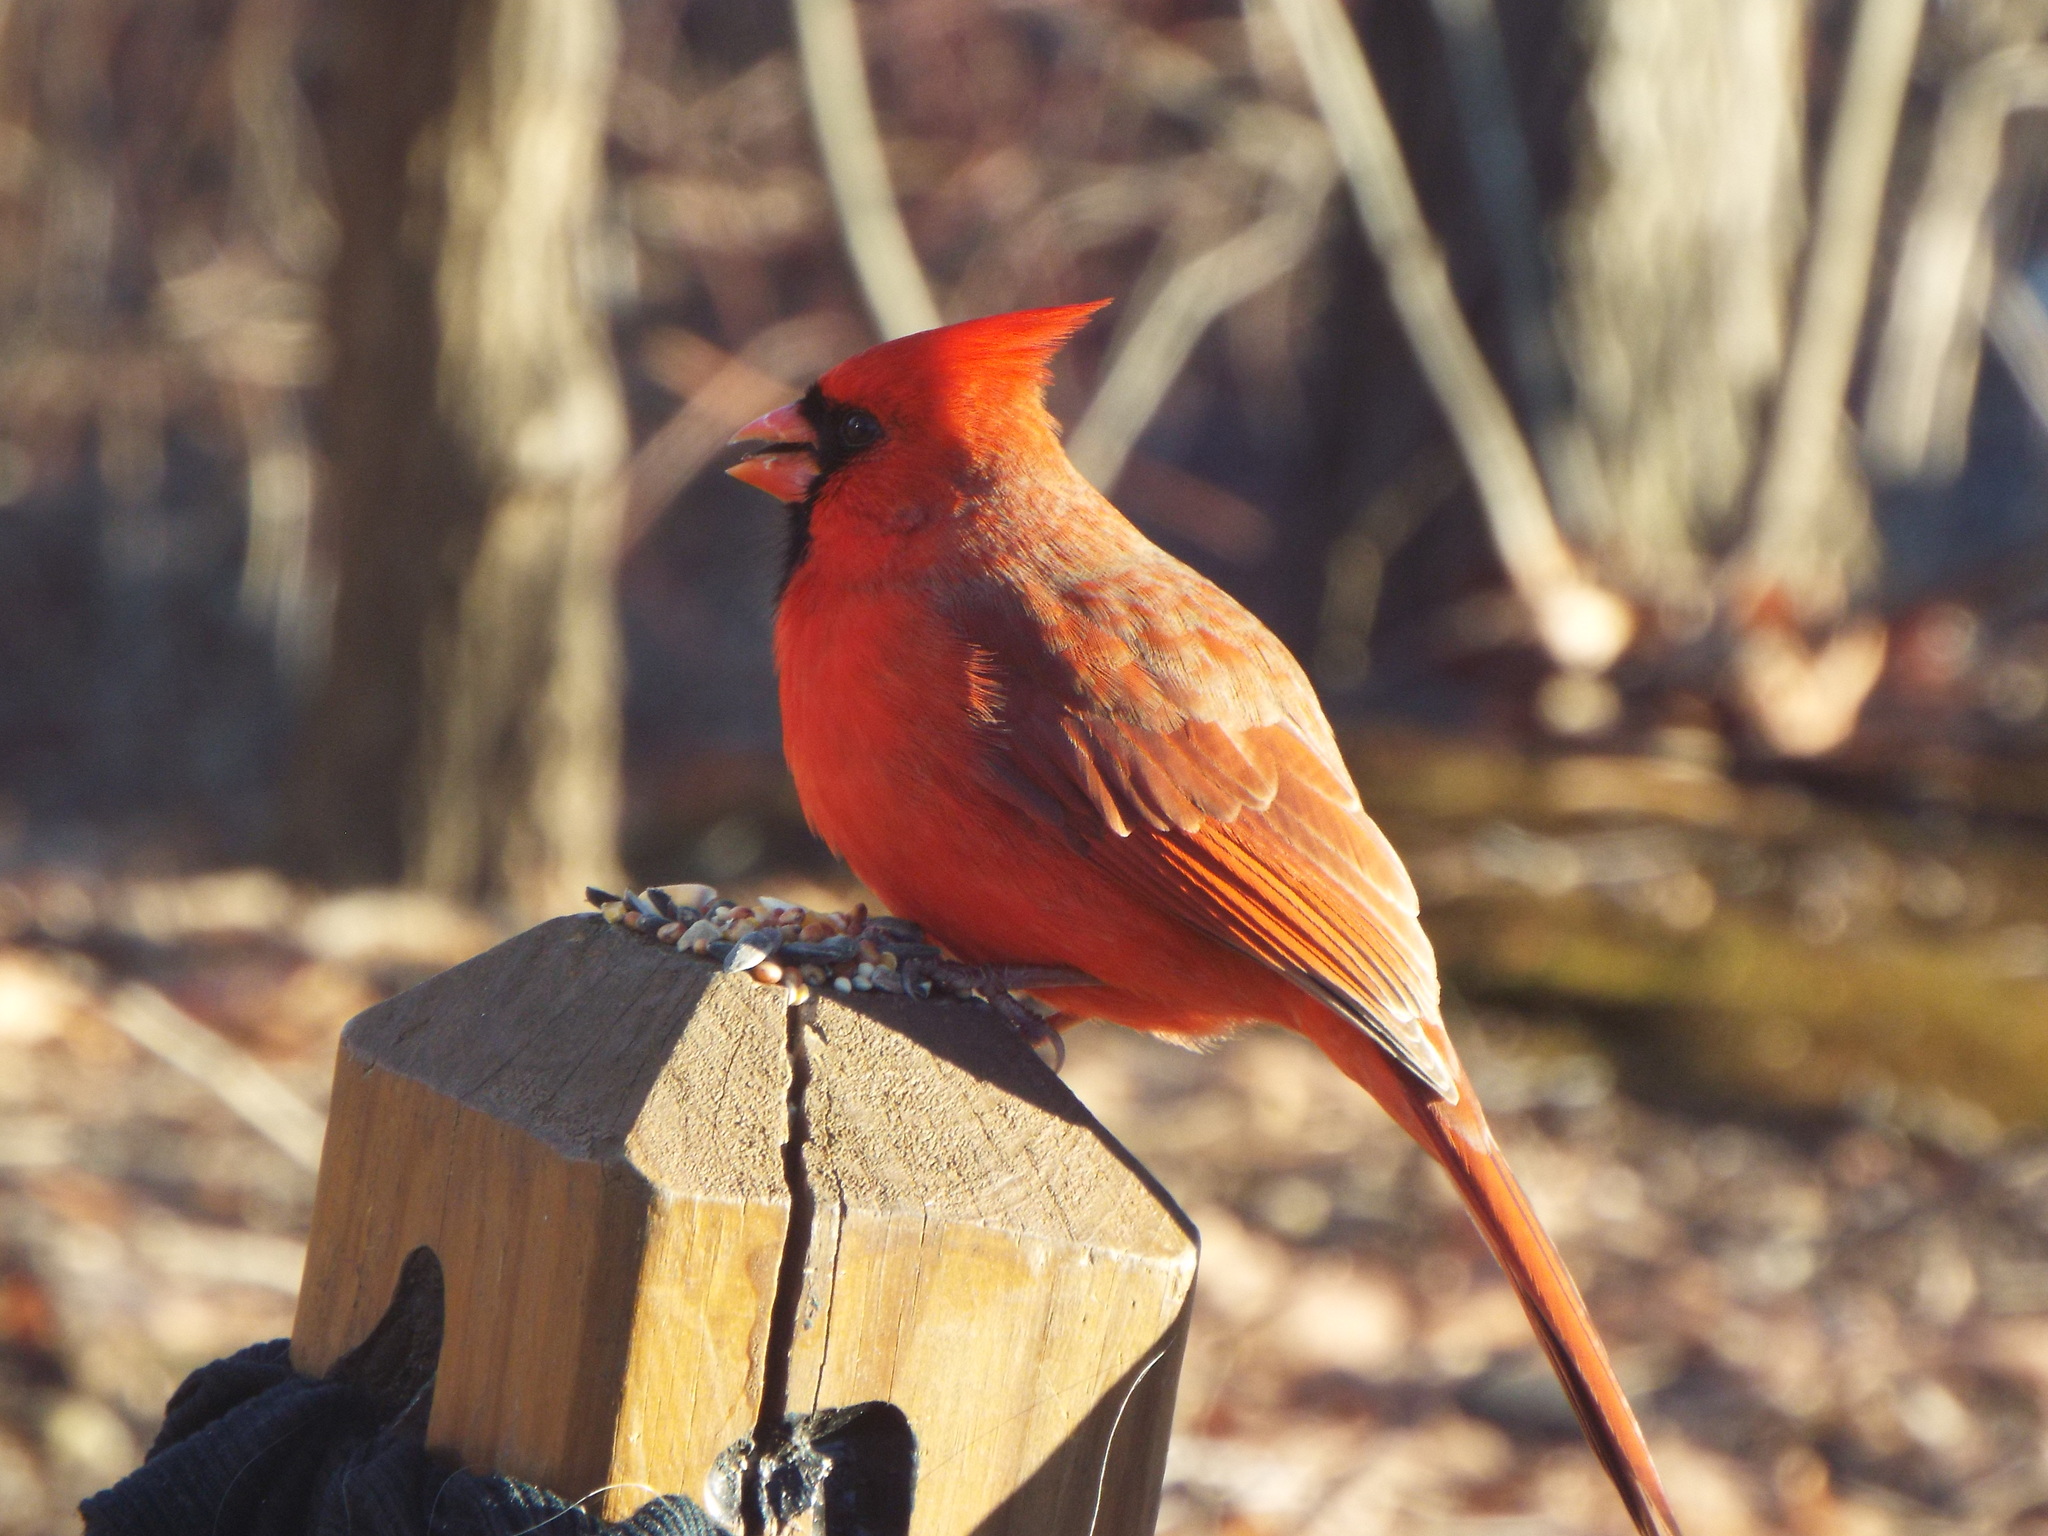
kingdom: Animalia
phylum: Chordata
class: Aves
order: Passeriformes
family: Cardinalidae
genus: Cardinalis
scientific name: Cardinalis cardinalis
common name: Northern cardinal
